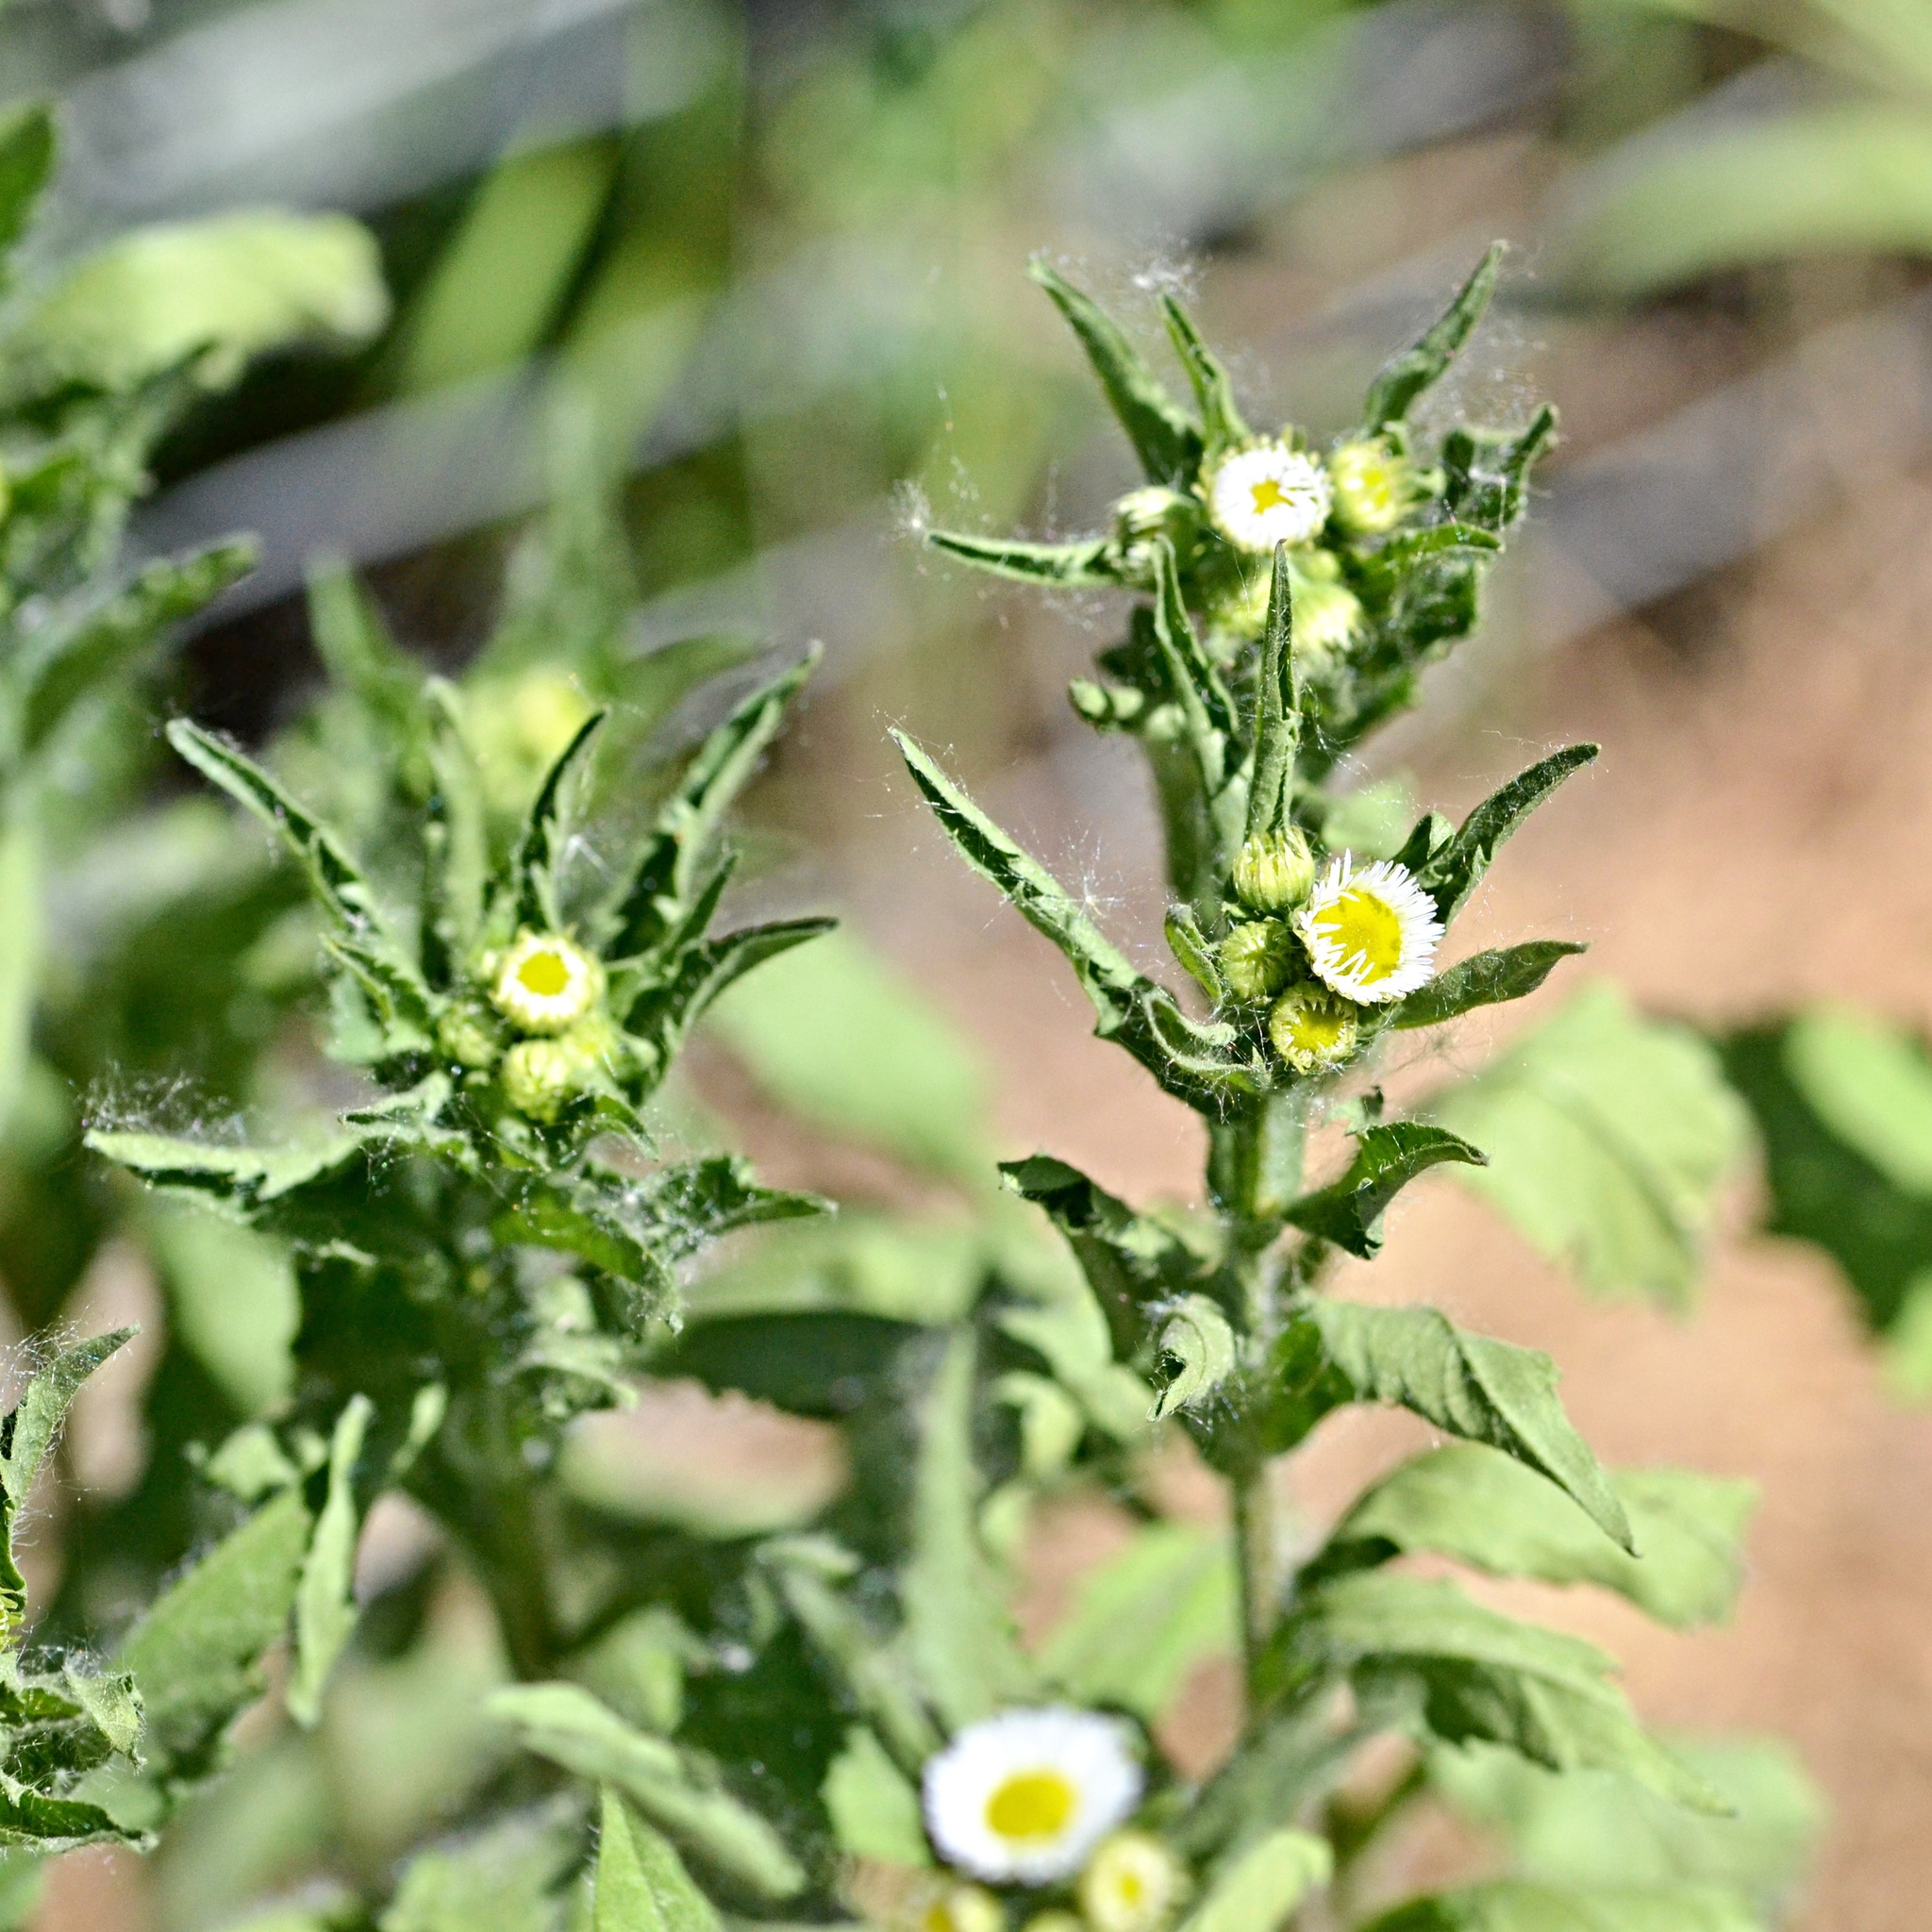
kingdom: Plantae
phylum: Tracheophyta
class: Magnoliopsida
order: Asterales
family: Asteraceae
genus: Erigeron
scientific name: Erigeron annuus
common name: Tall fleabane
